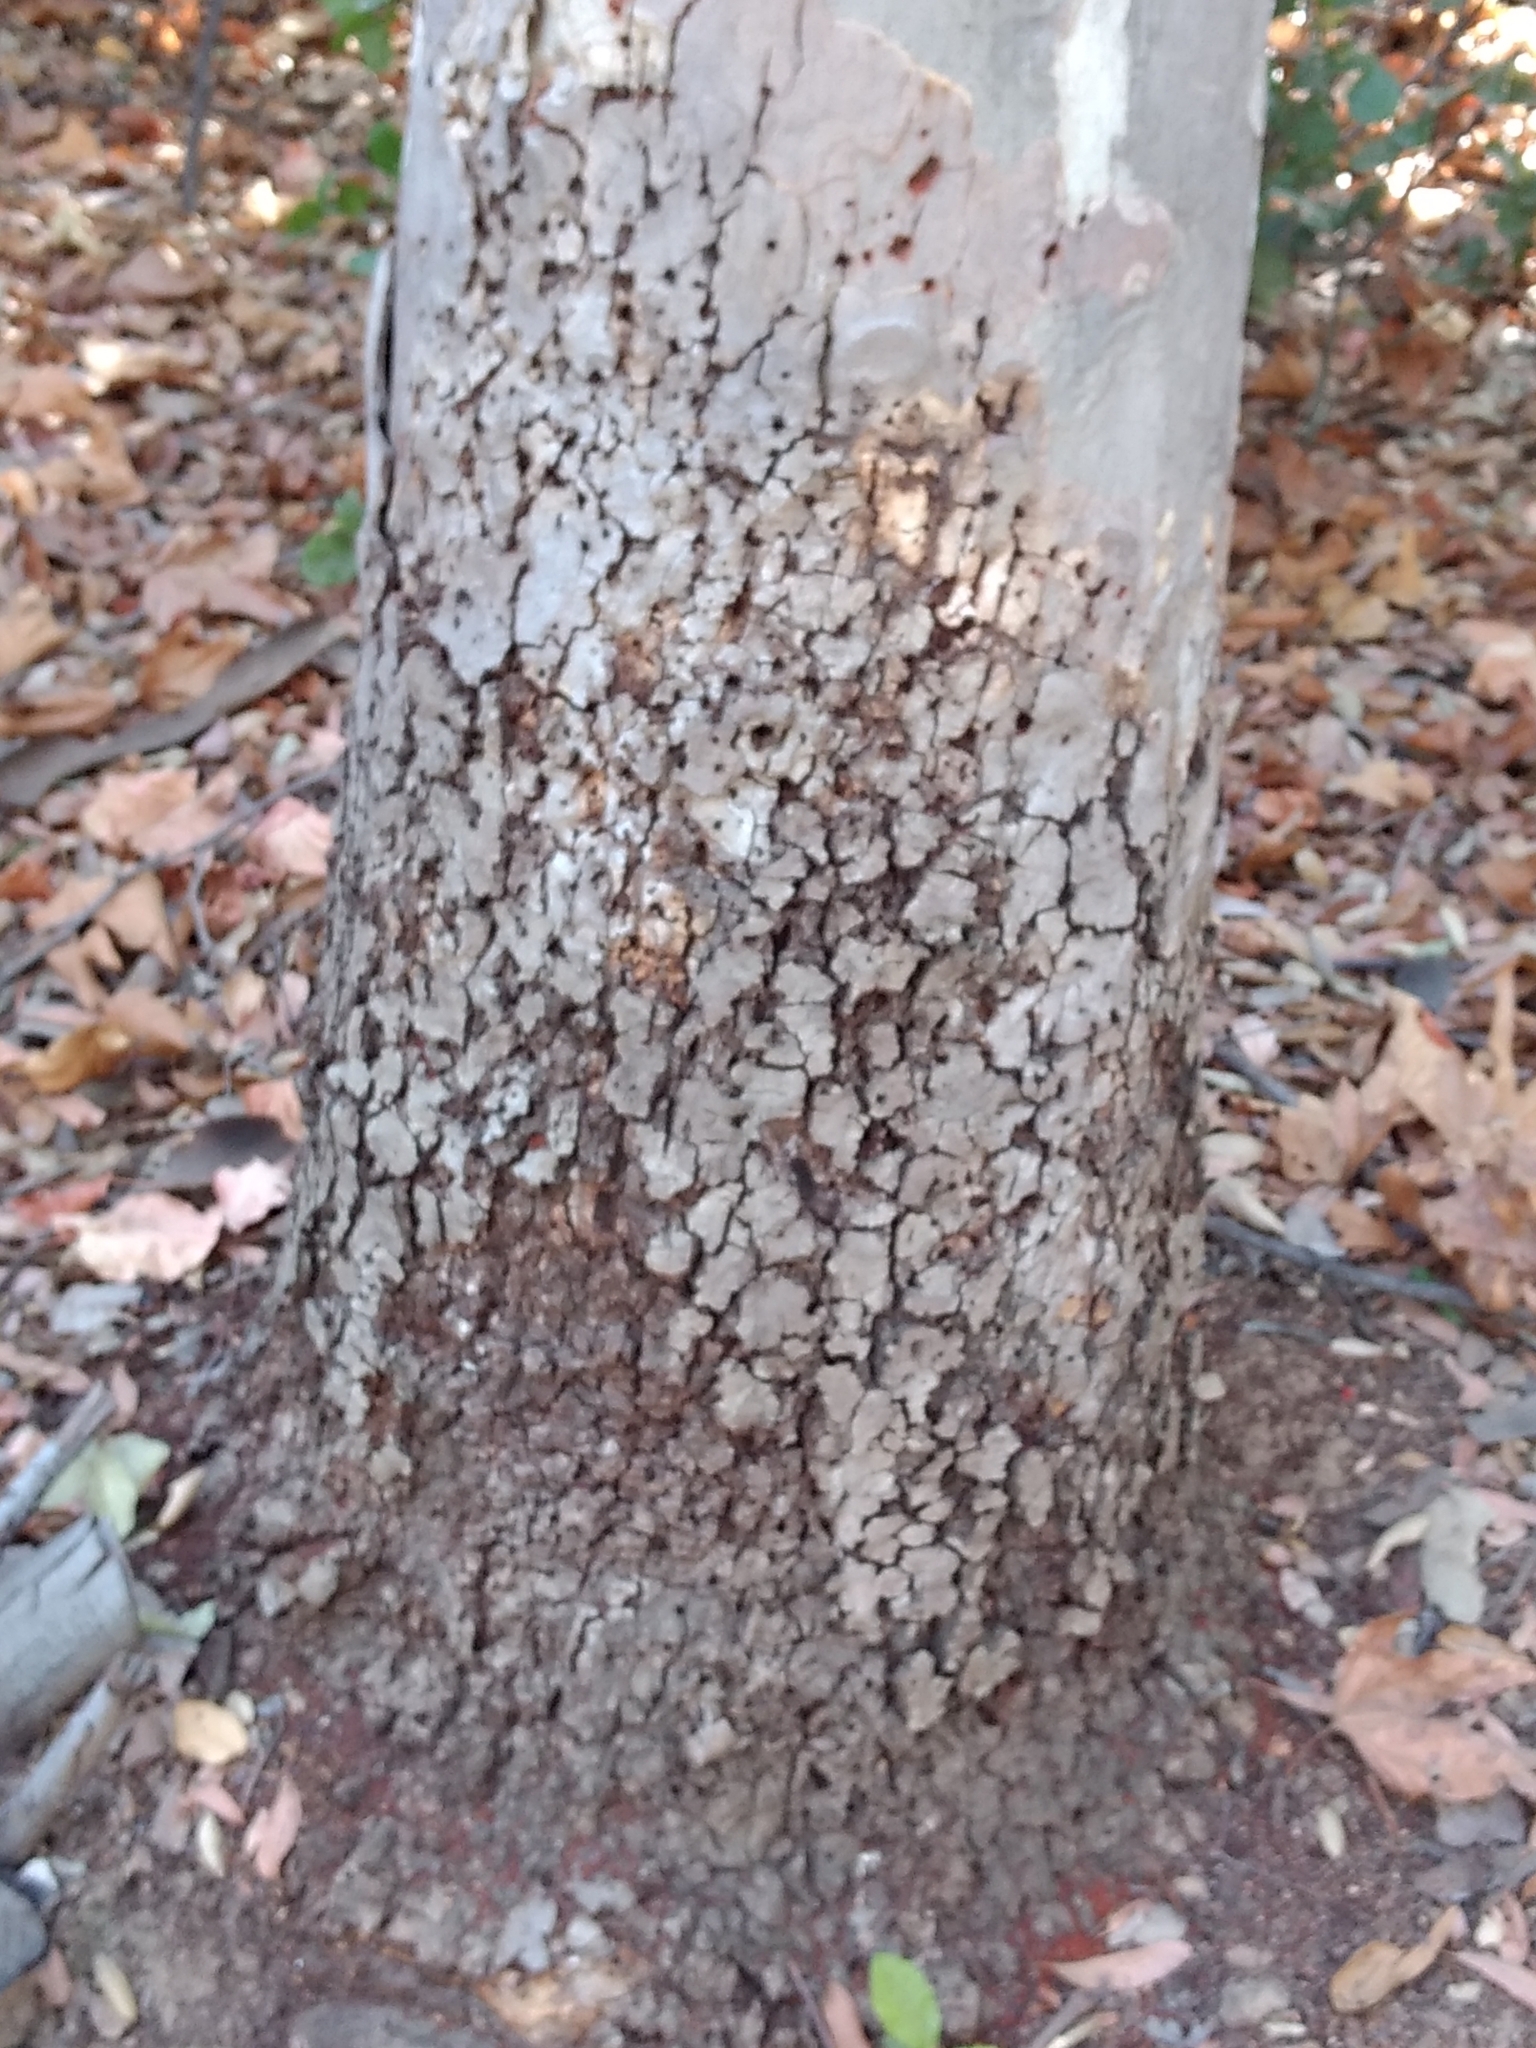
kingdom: Animalia
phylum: Arthropoda
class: Insecta
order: Lepidoptera
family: Sesiidae
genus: Synanthedon
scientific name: Synanthedon resplendens
